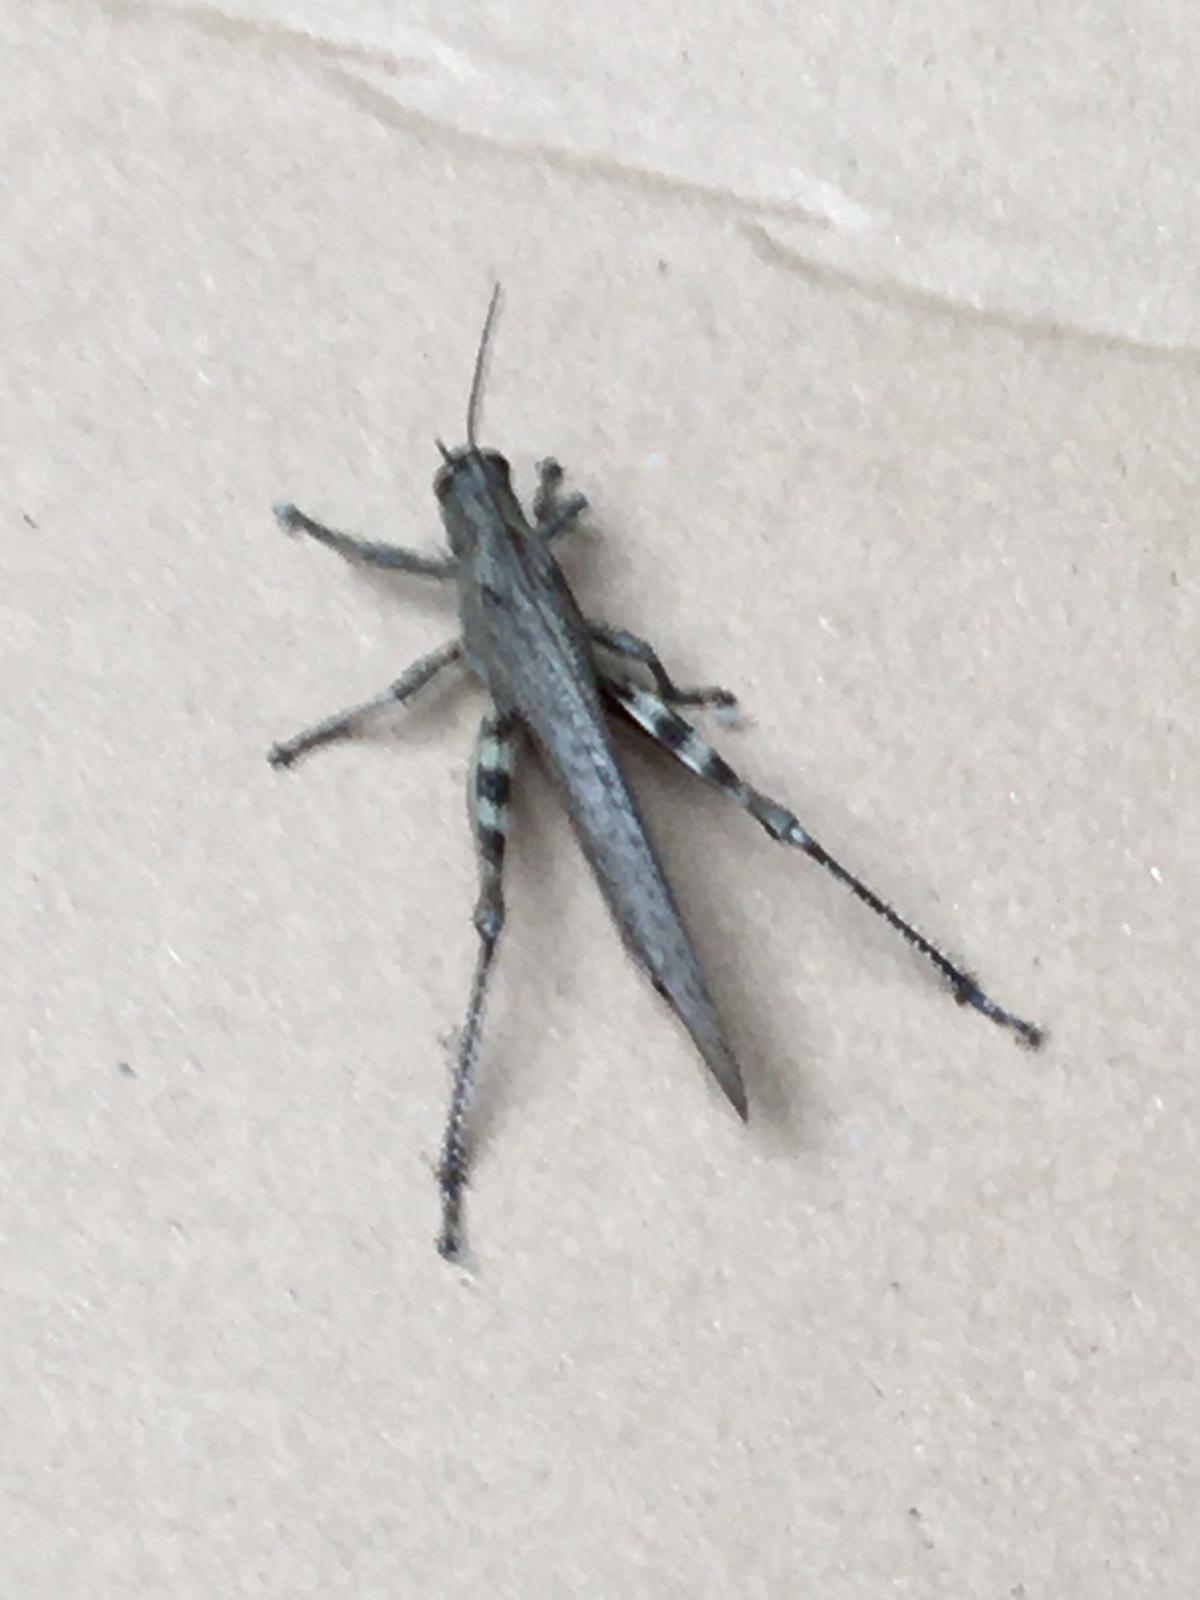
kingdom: Animalia
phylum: Arthropoda
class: Insecta
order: Orthoptera
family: Acrididae
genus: Anacridium
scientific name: Anacridium aegyptium
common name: Egyptian grasshopper
